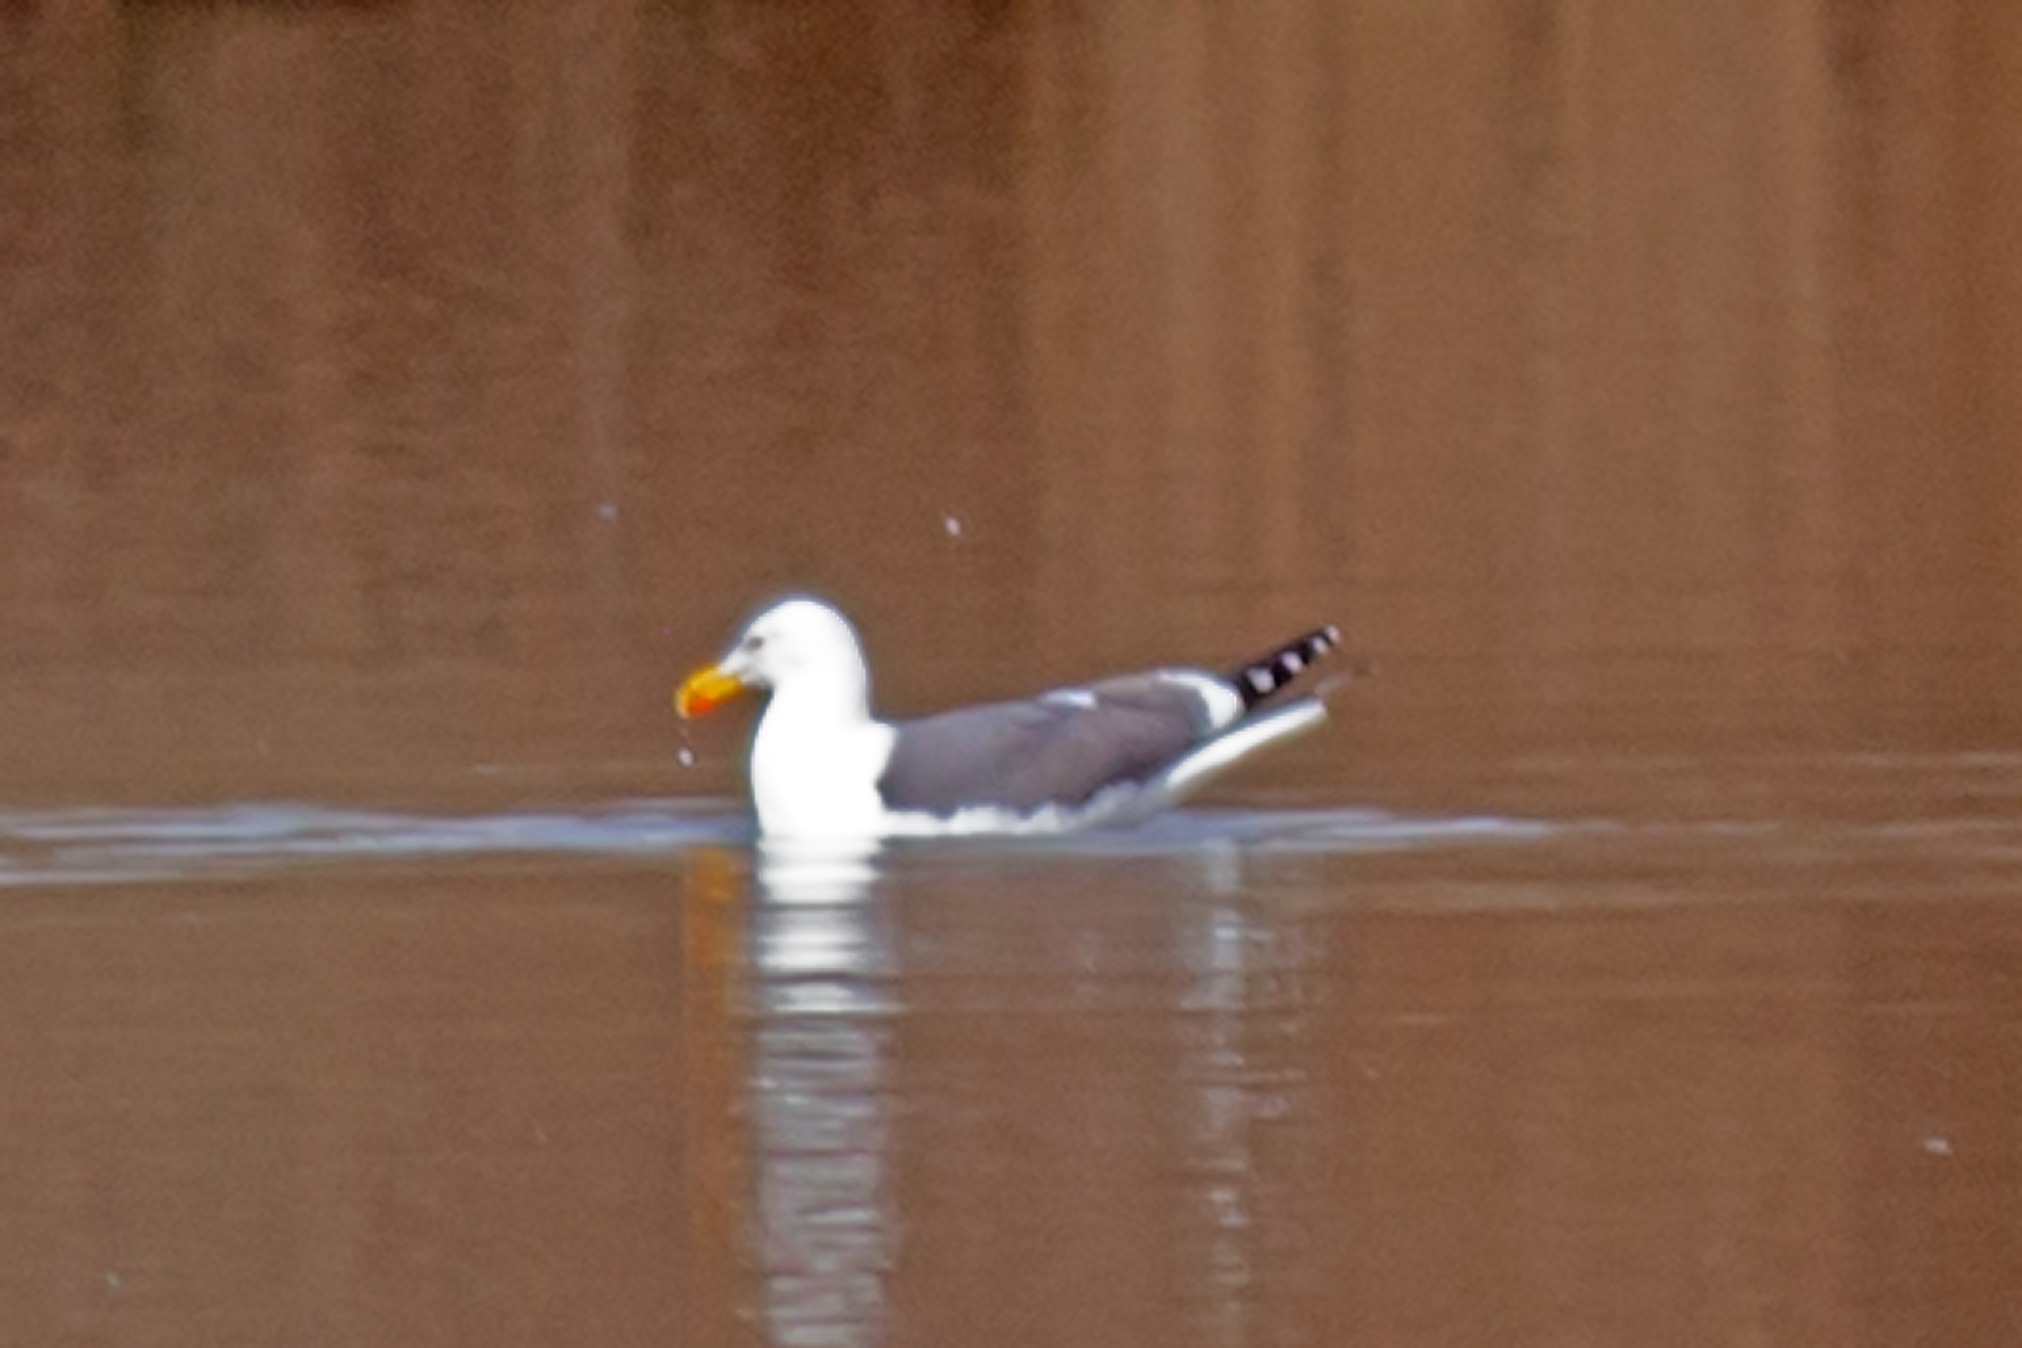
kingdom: Animalia
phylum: Chordata
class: Aves
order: Charadriiformes
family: Laridae
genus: Larus
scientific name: Larus fuscus
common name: Lesser black-backed gull
